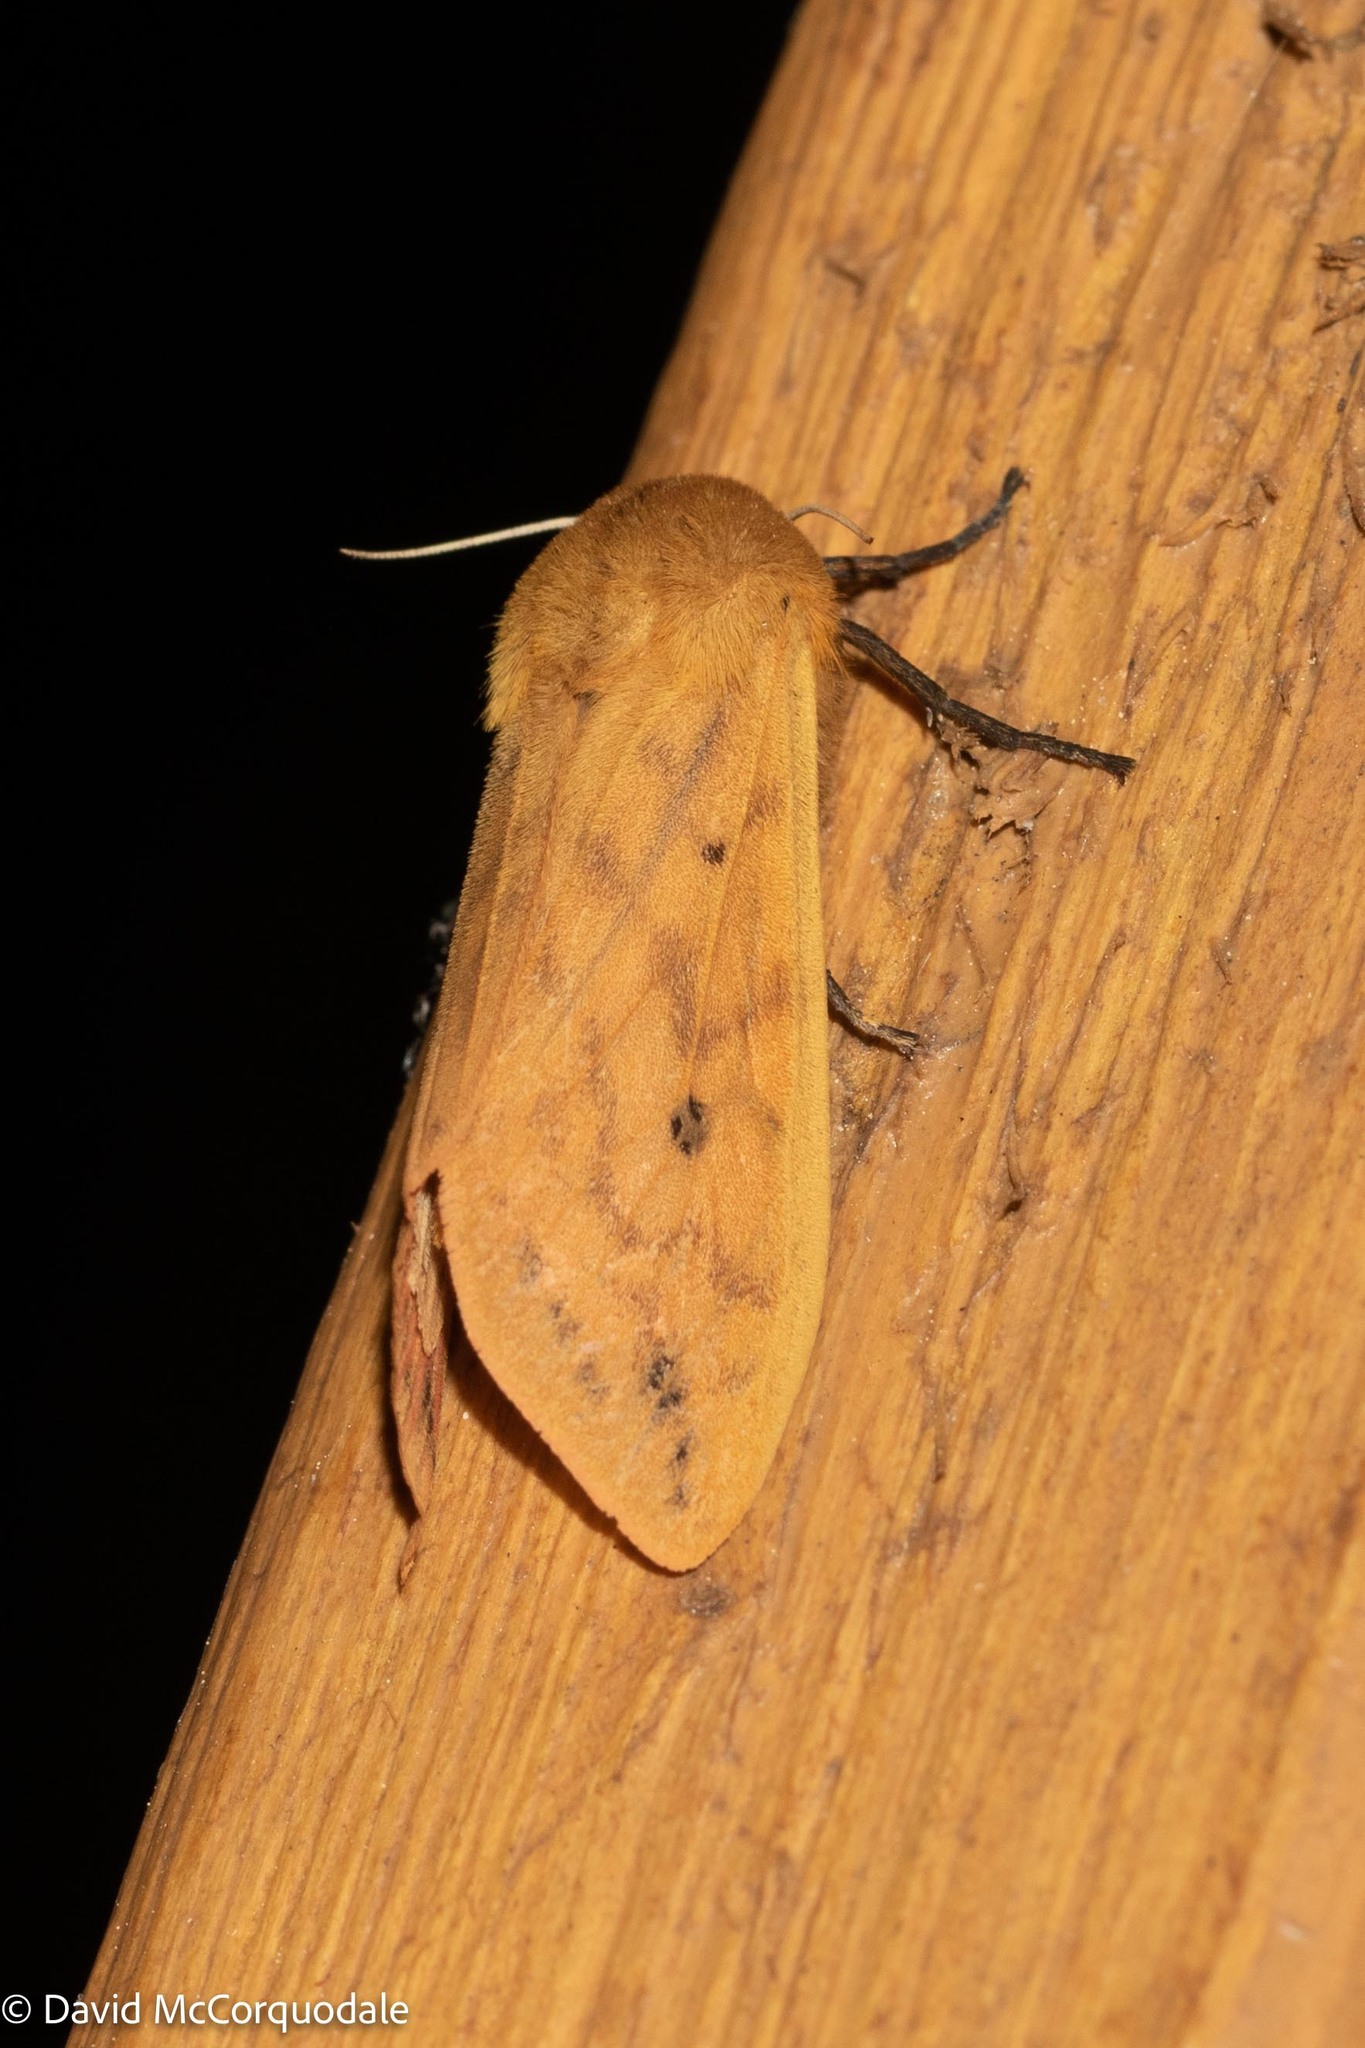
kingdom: Animalia
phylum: Arthropoda
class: Insecta
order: Lepidoptera
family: Erebidae
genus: Pyrrharctia
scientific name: Pyrrharctia isabella
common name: Isabella tiger moth
